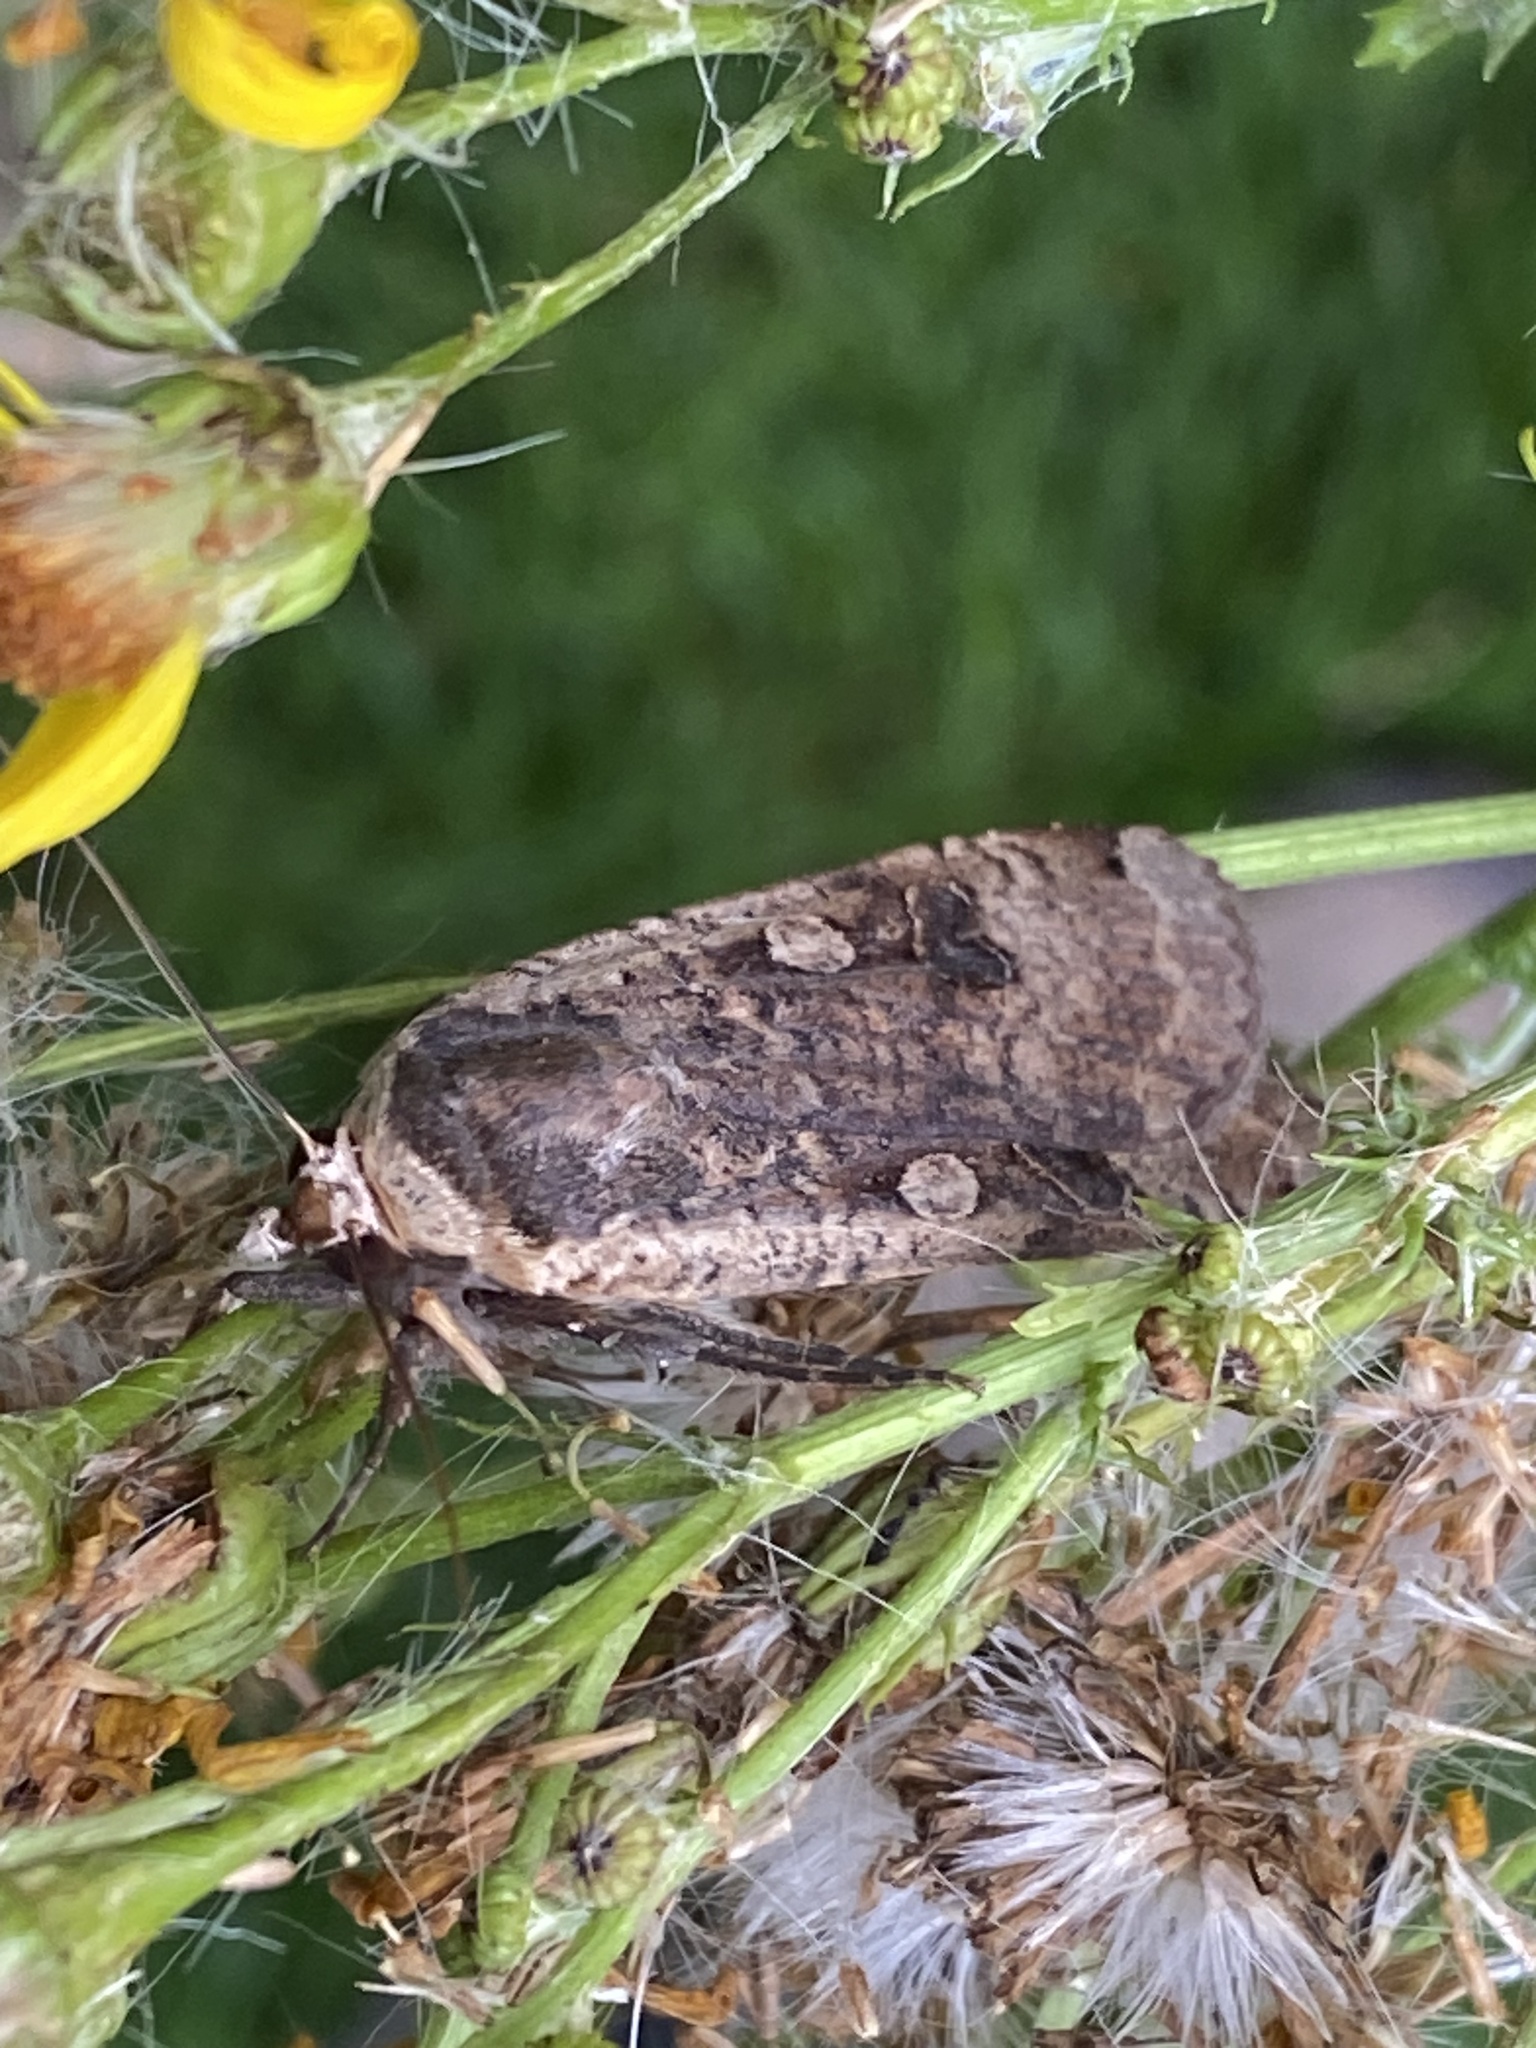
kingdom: Animalia
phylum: Arthropoda
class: Insecta
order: Lepidoptera
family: Noctuidae
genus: Noctua
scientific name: Noctua pronuba
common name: Large yellow underwing
